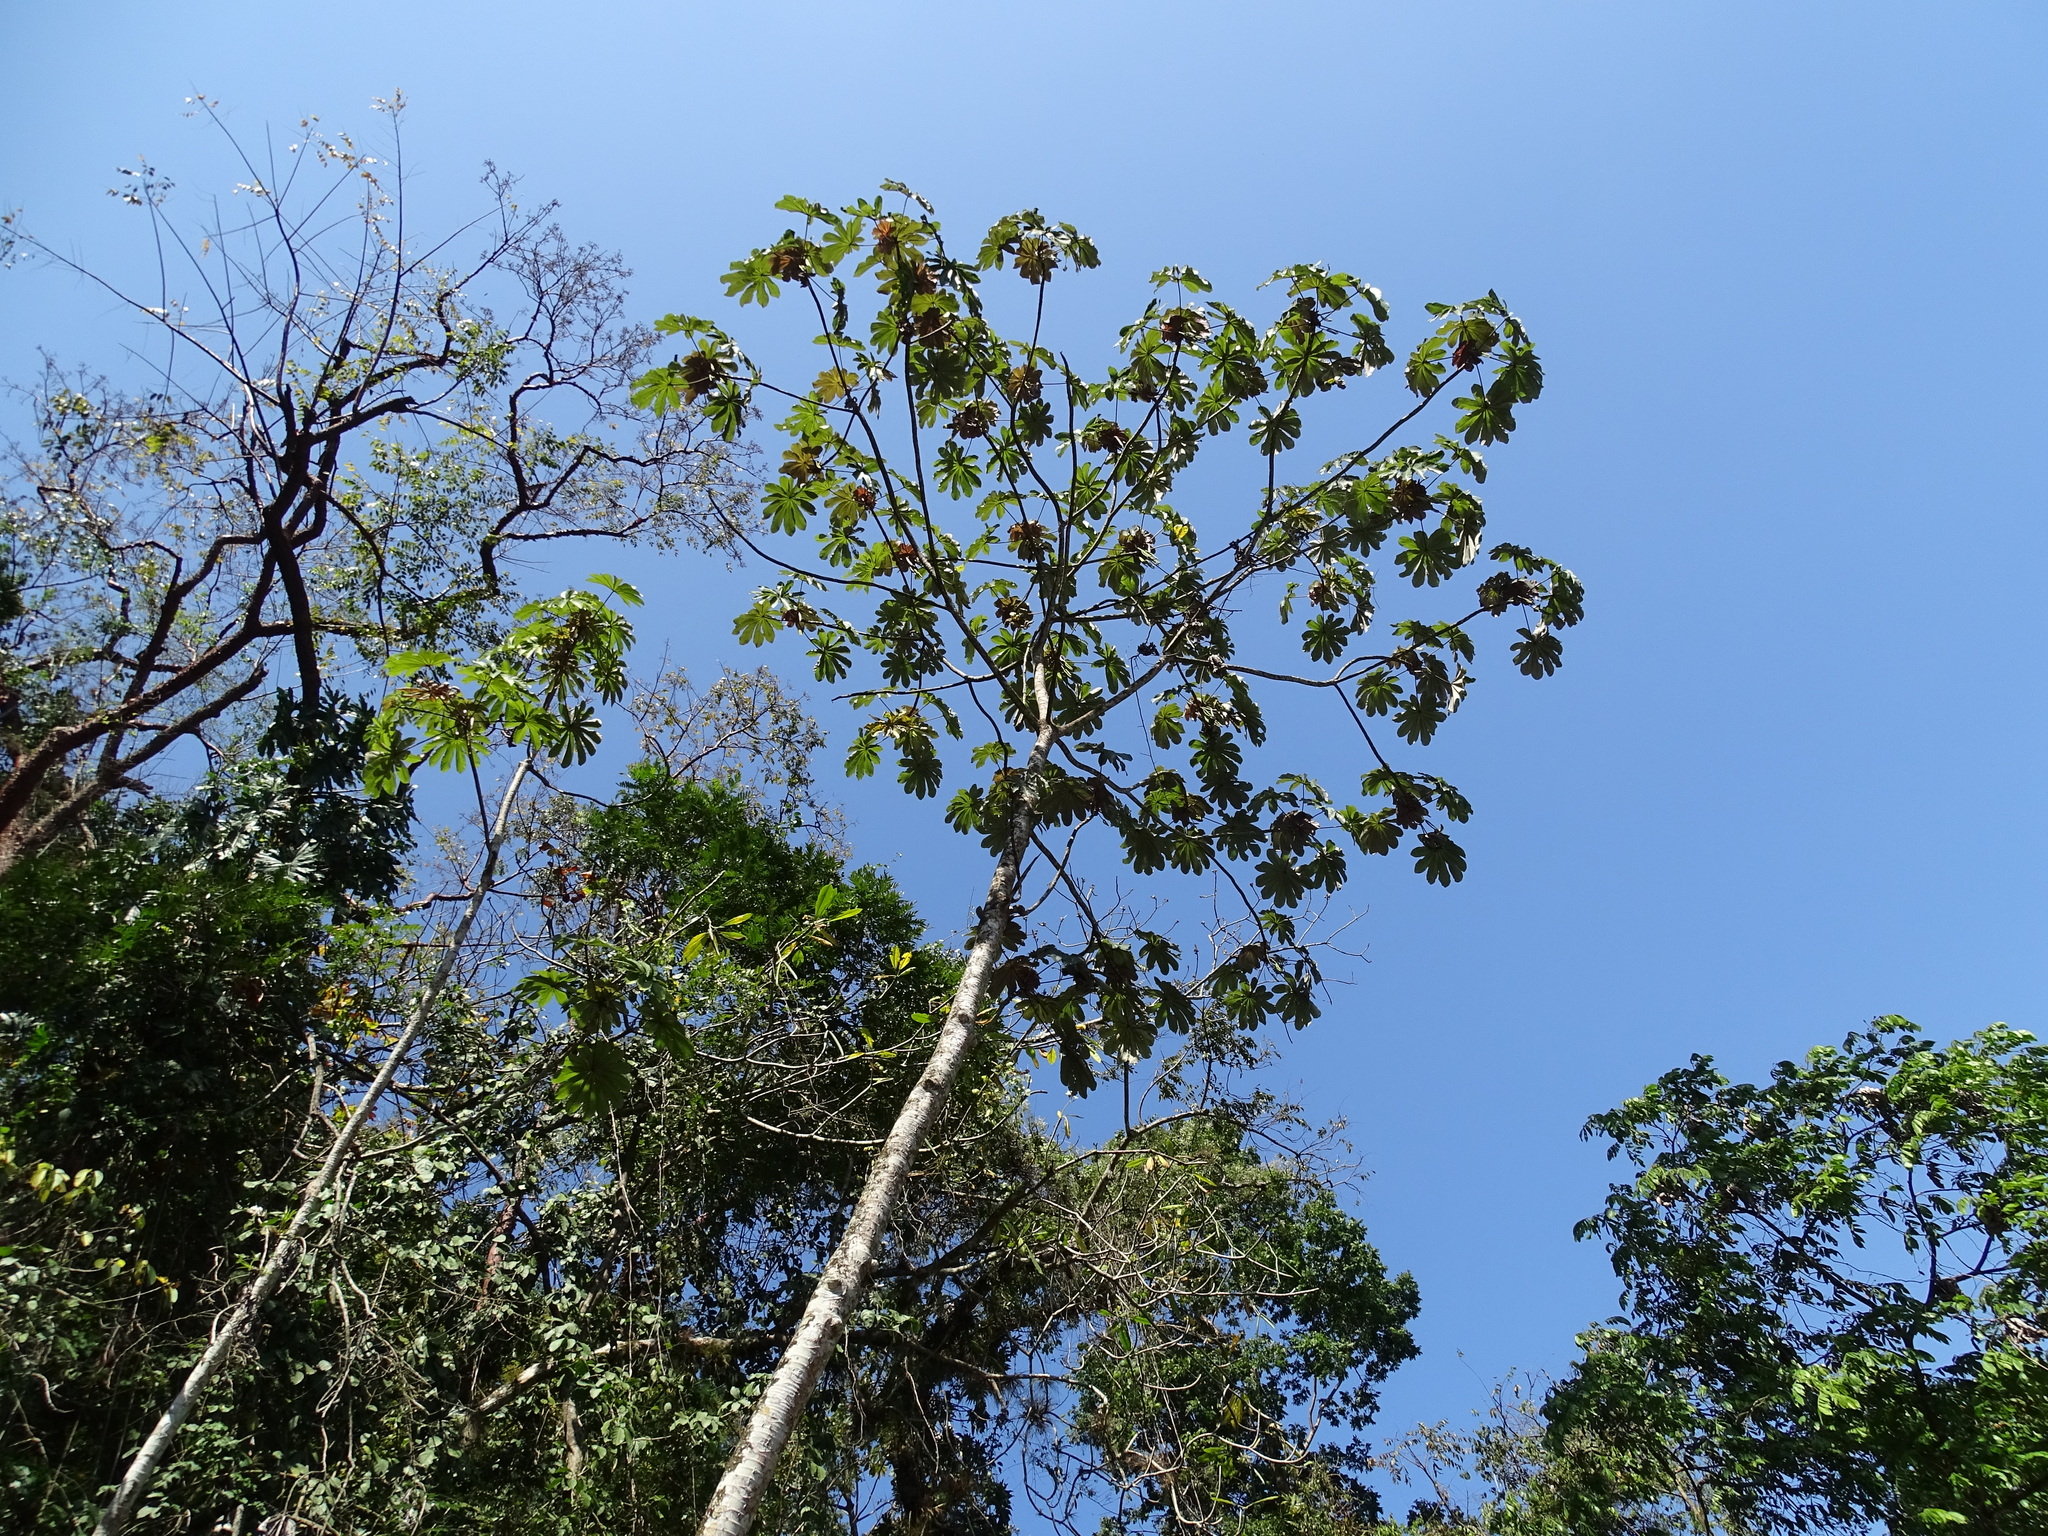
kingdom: Plantae
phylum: Tracheophyta
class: Magnoliopsida
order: Rosales
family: Urticaceae
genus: Cecropia
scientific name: Cecropia obtusifolia
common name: Trumpet tree
